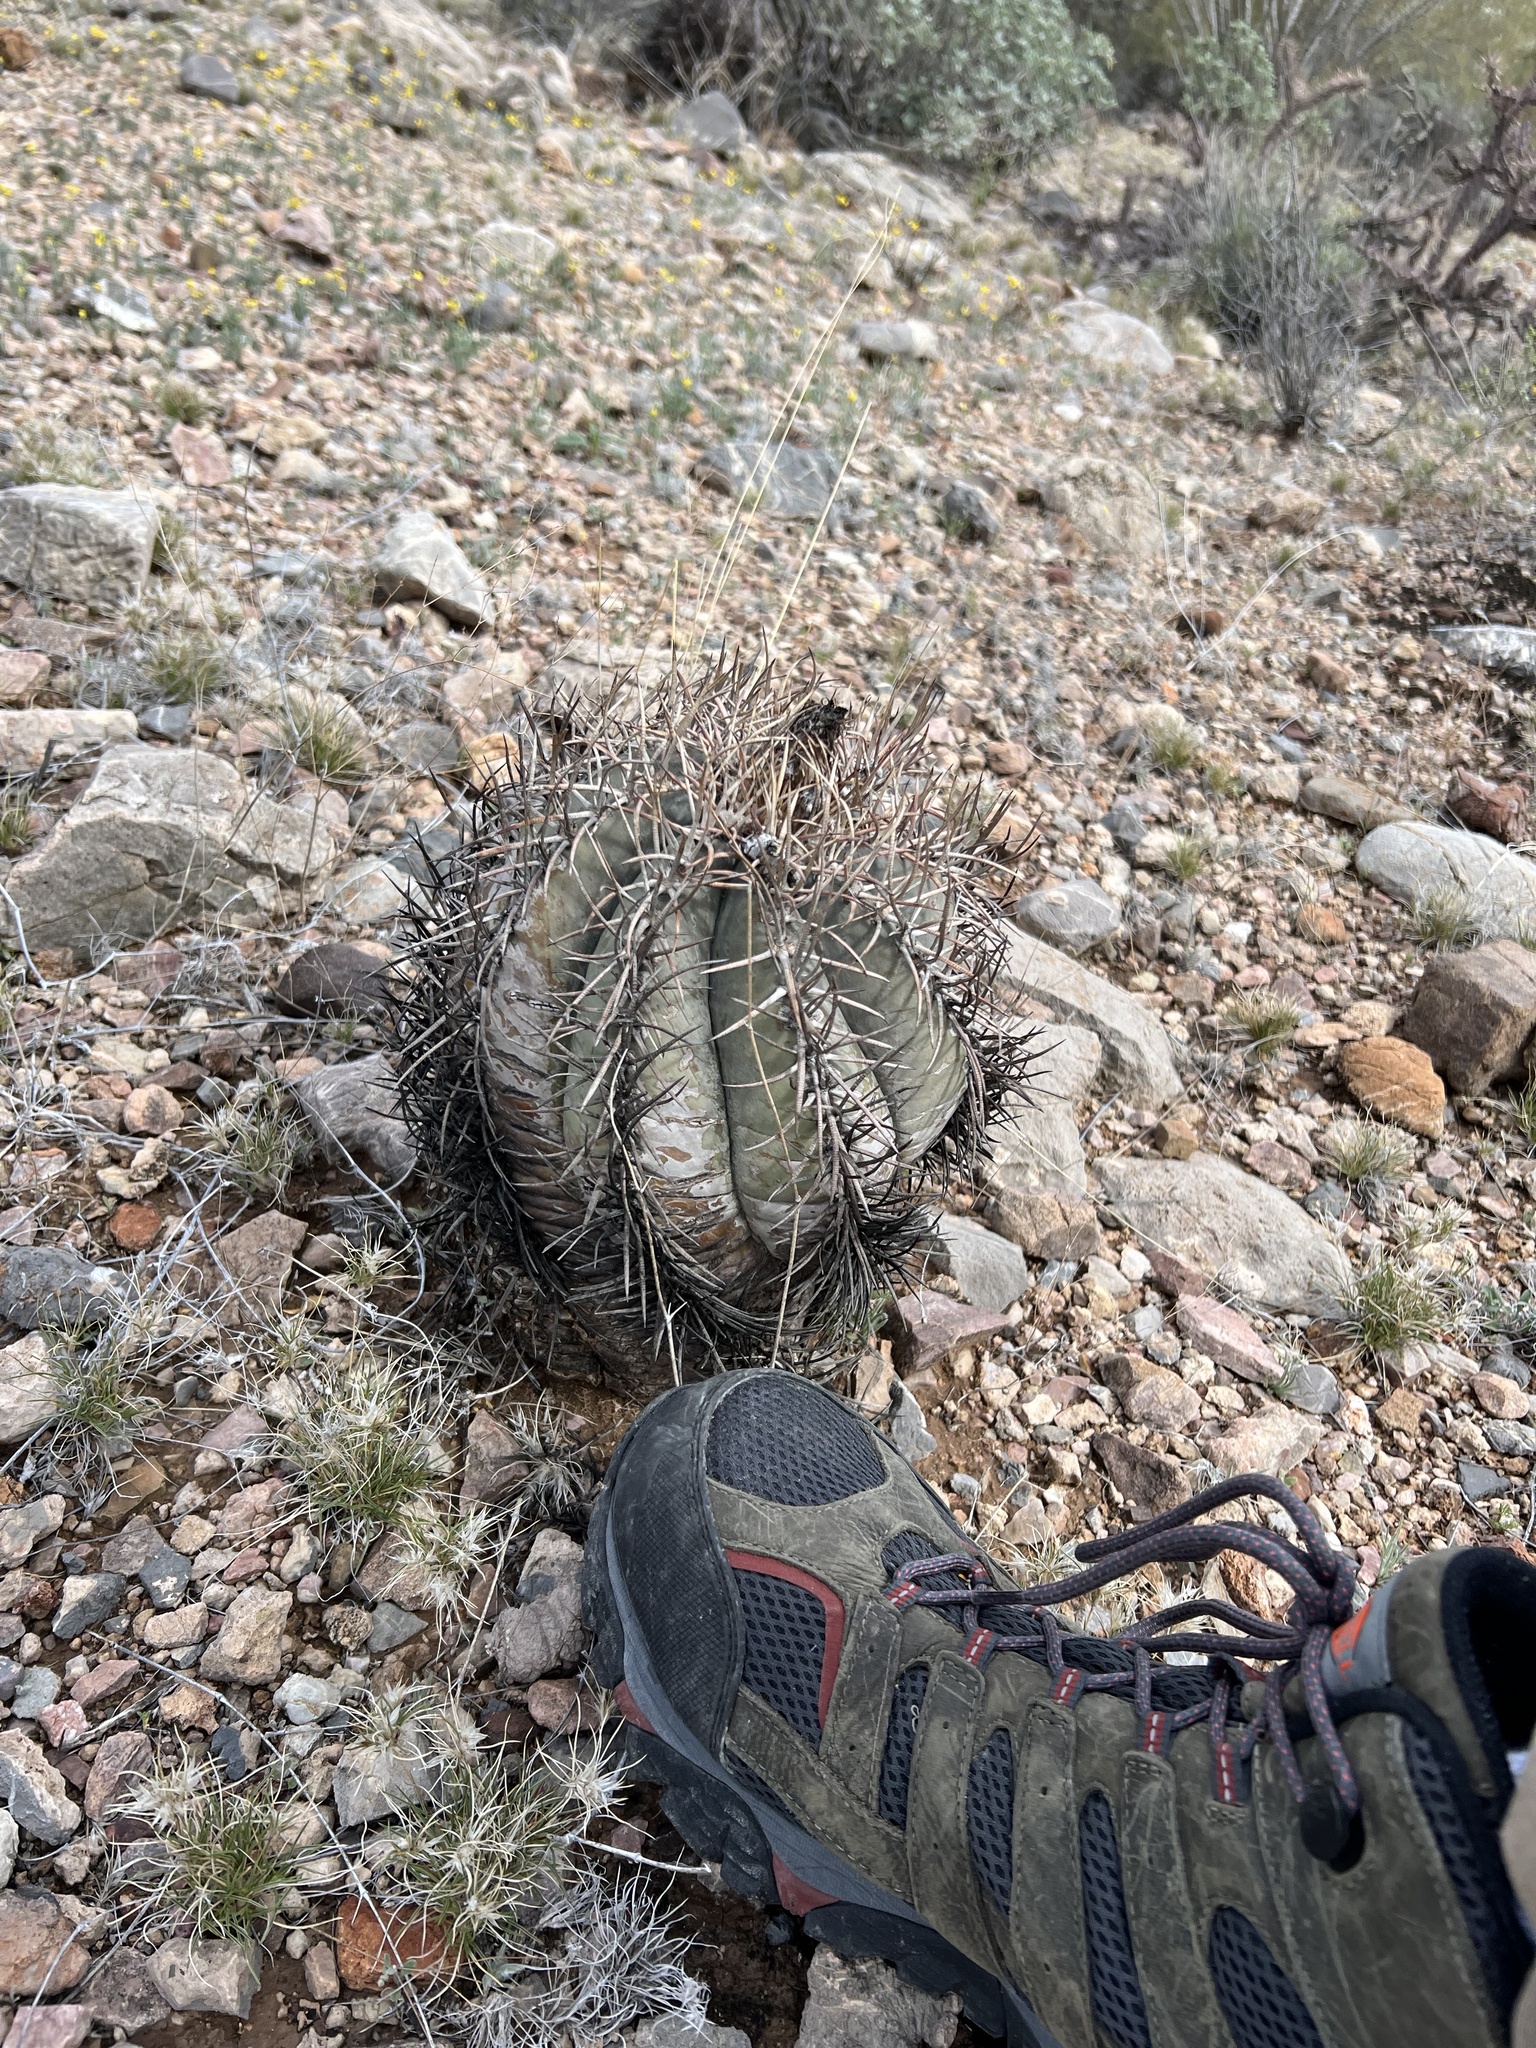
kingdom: Plantae
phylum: Tracheophyta
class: Magnoliopsida
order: Caryophyllales
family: Cactaceae
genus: Echinocactus
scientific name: Echinocactus horizonthalonius
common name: Devilshead
